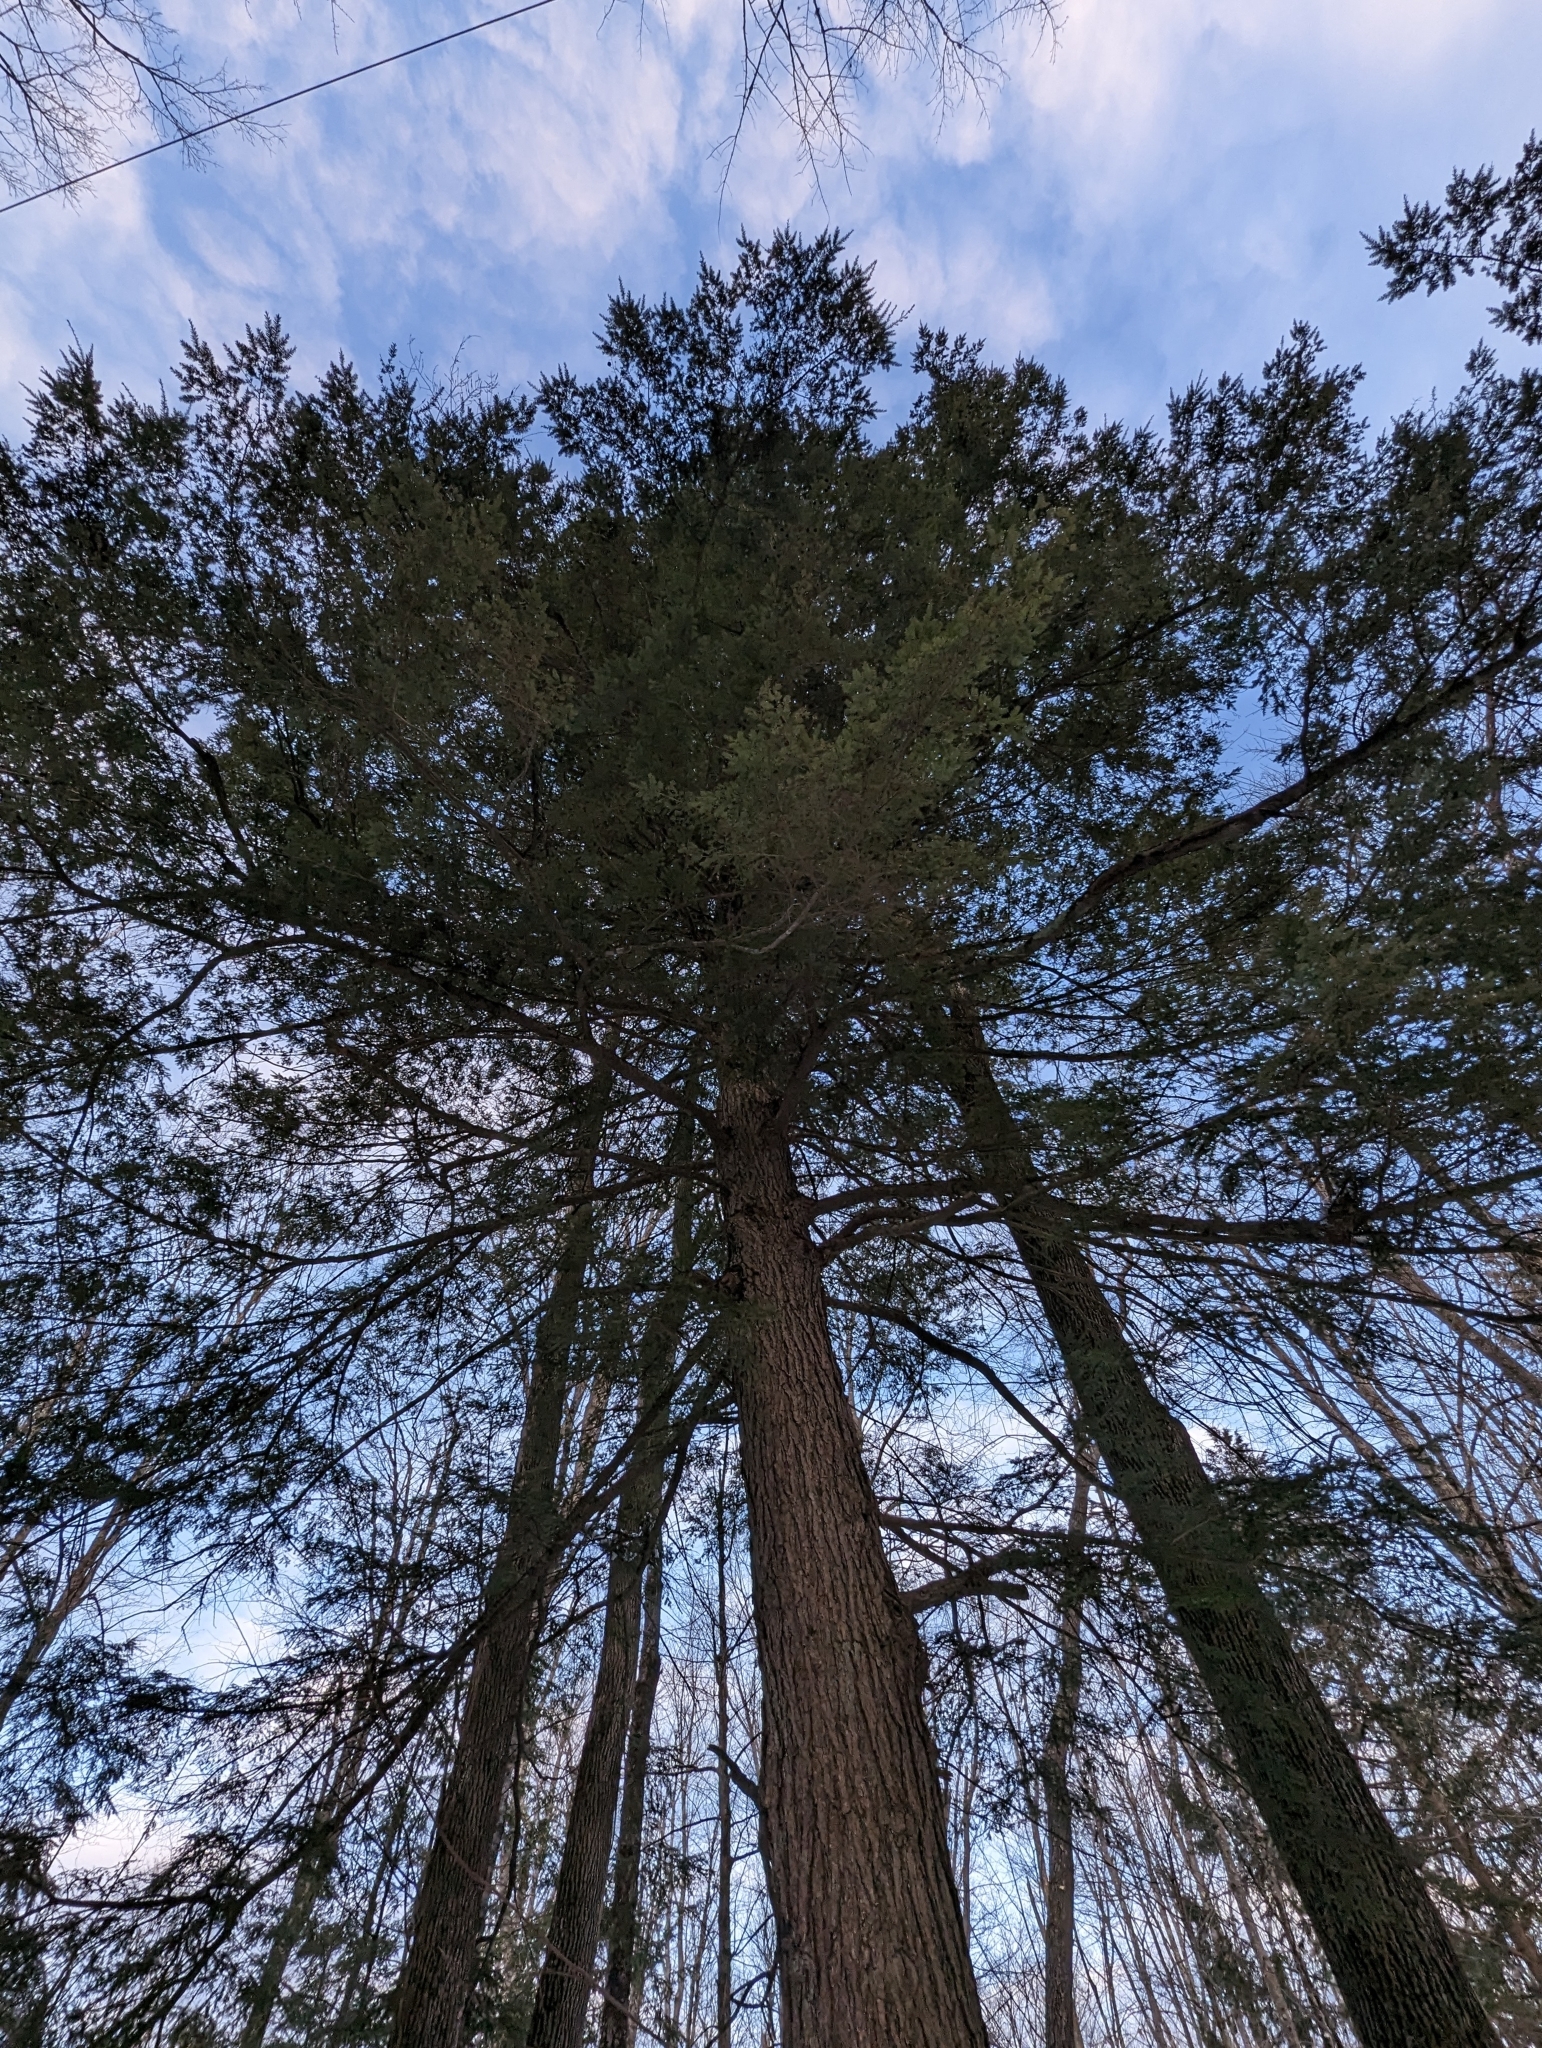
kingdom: Plantae
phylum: Tracheophyta
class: Pinopsida
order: Pinales
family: Pinaceae
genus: Tsuga
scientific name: Tsuga canadensis
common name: Eastern hemlock
